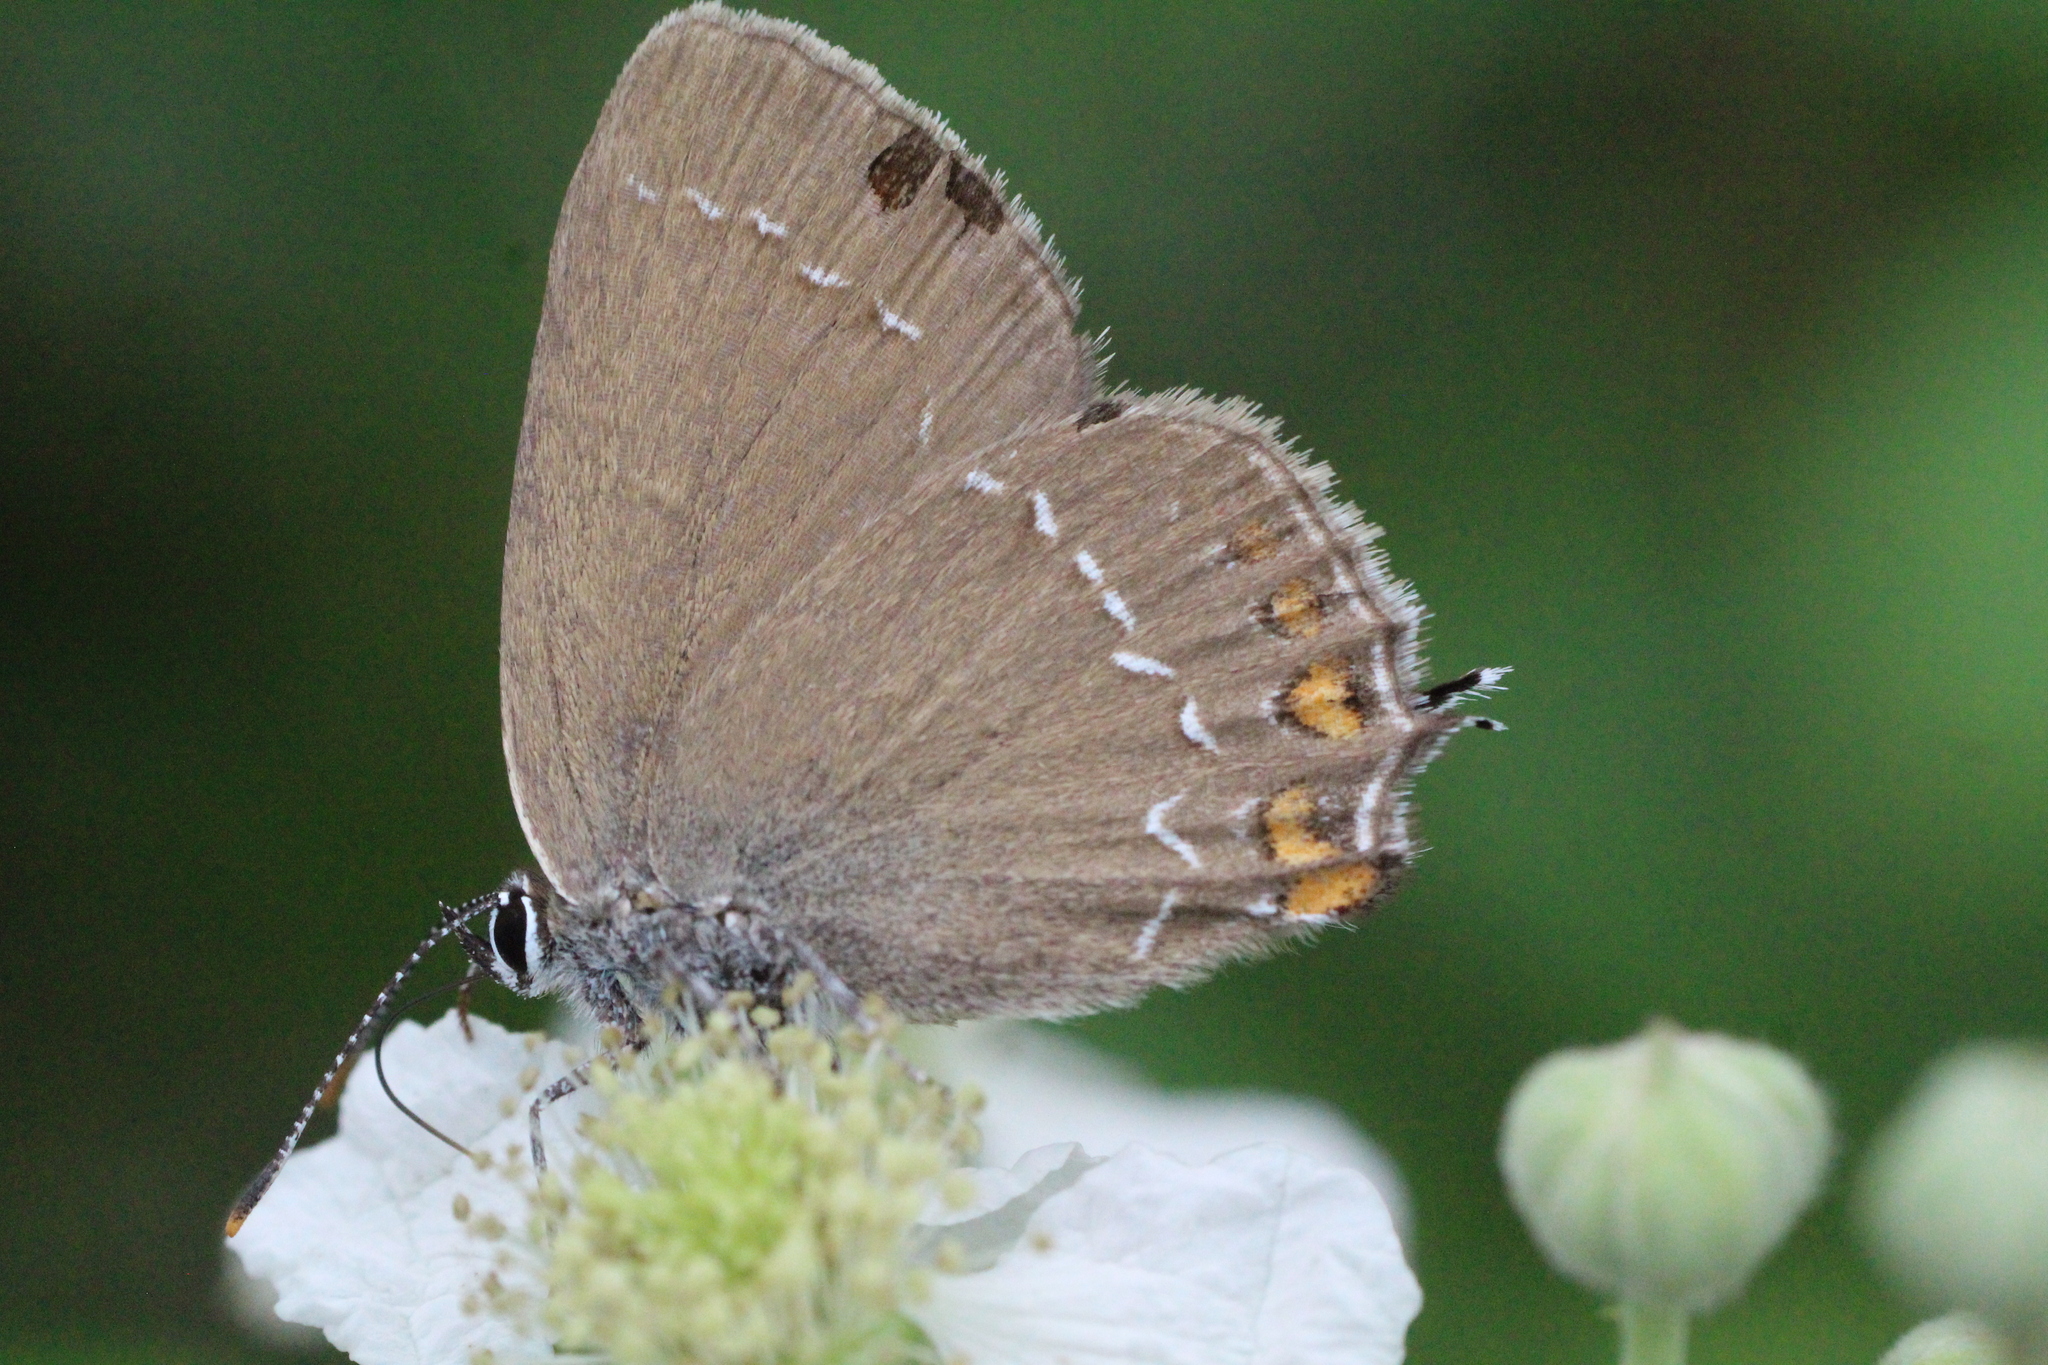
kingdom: Animalia
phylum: Arthropoda
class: Insecta
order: Lepidoptera
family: Lycaenidae
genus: Nordmannia
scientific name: Nordmannia ilicis
